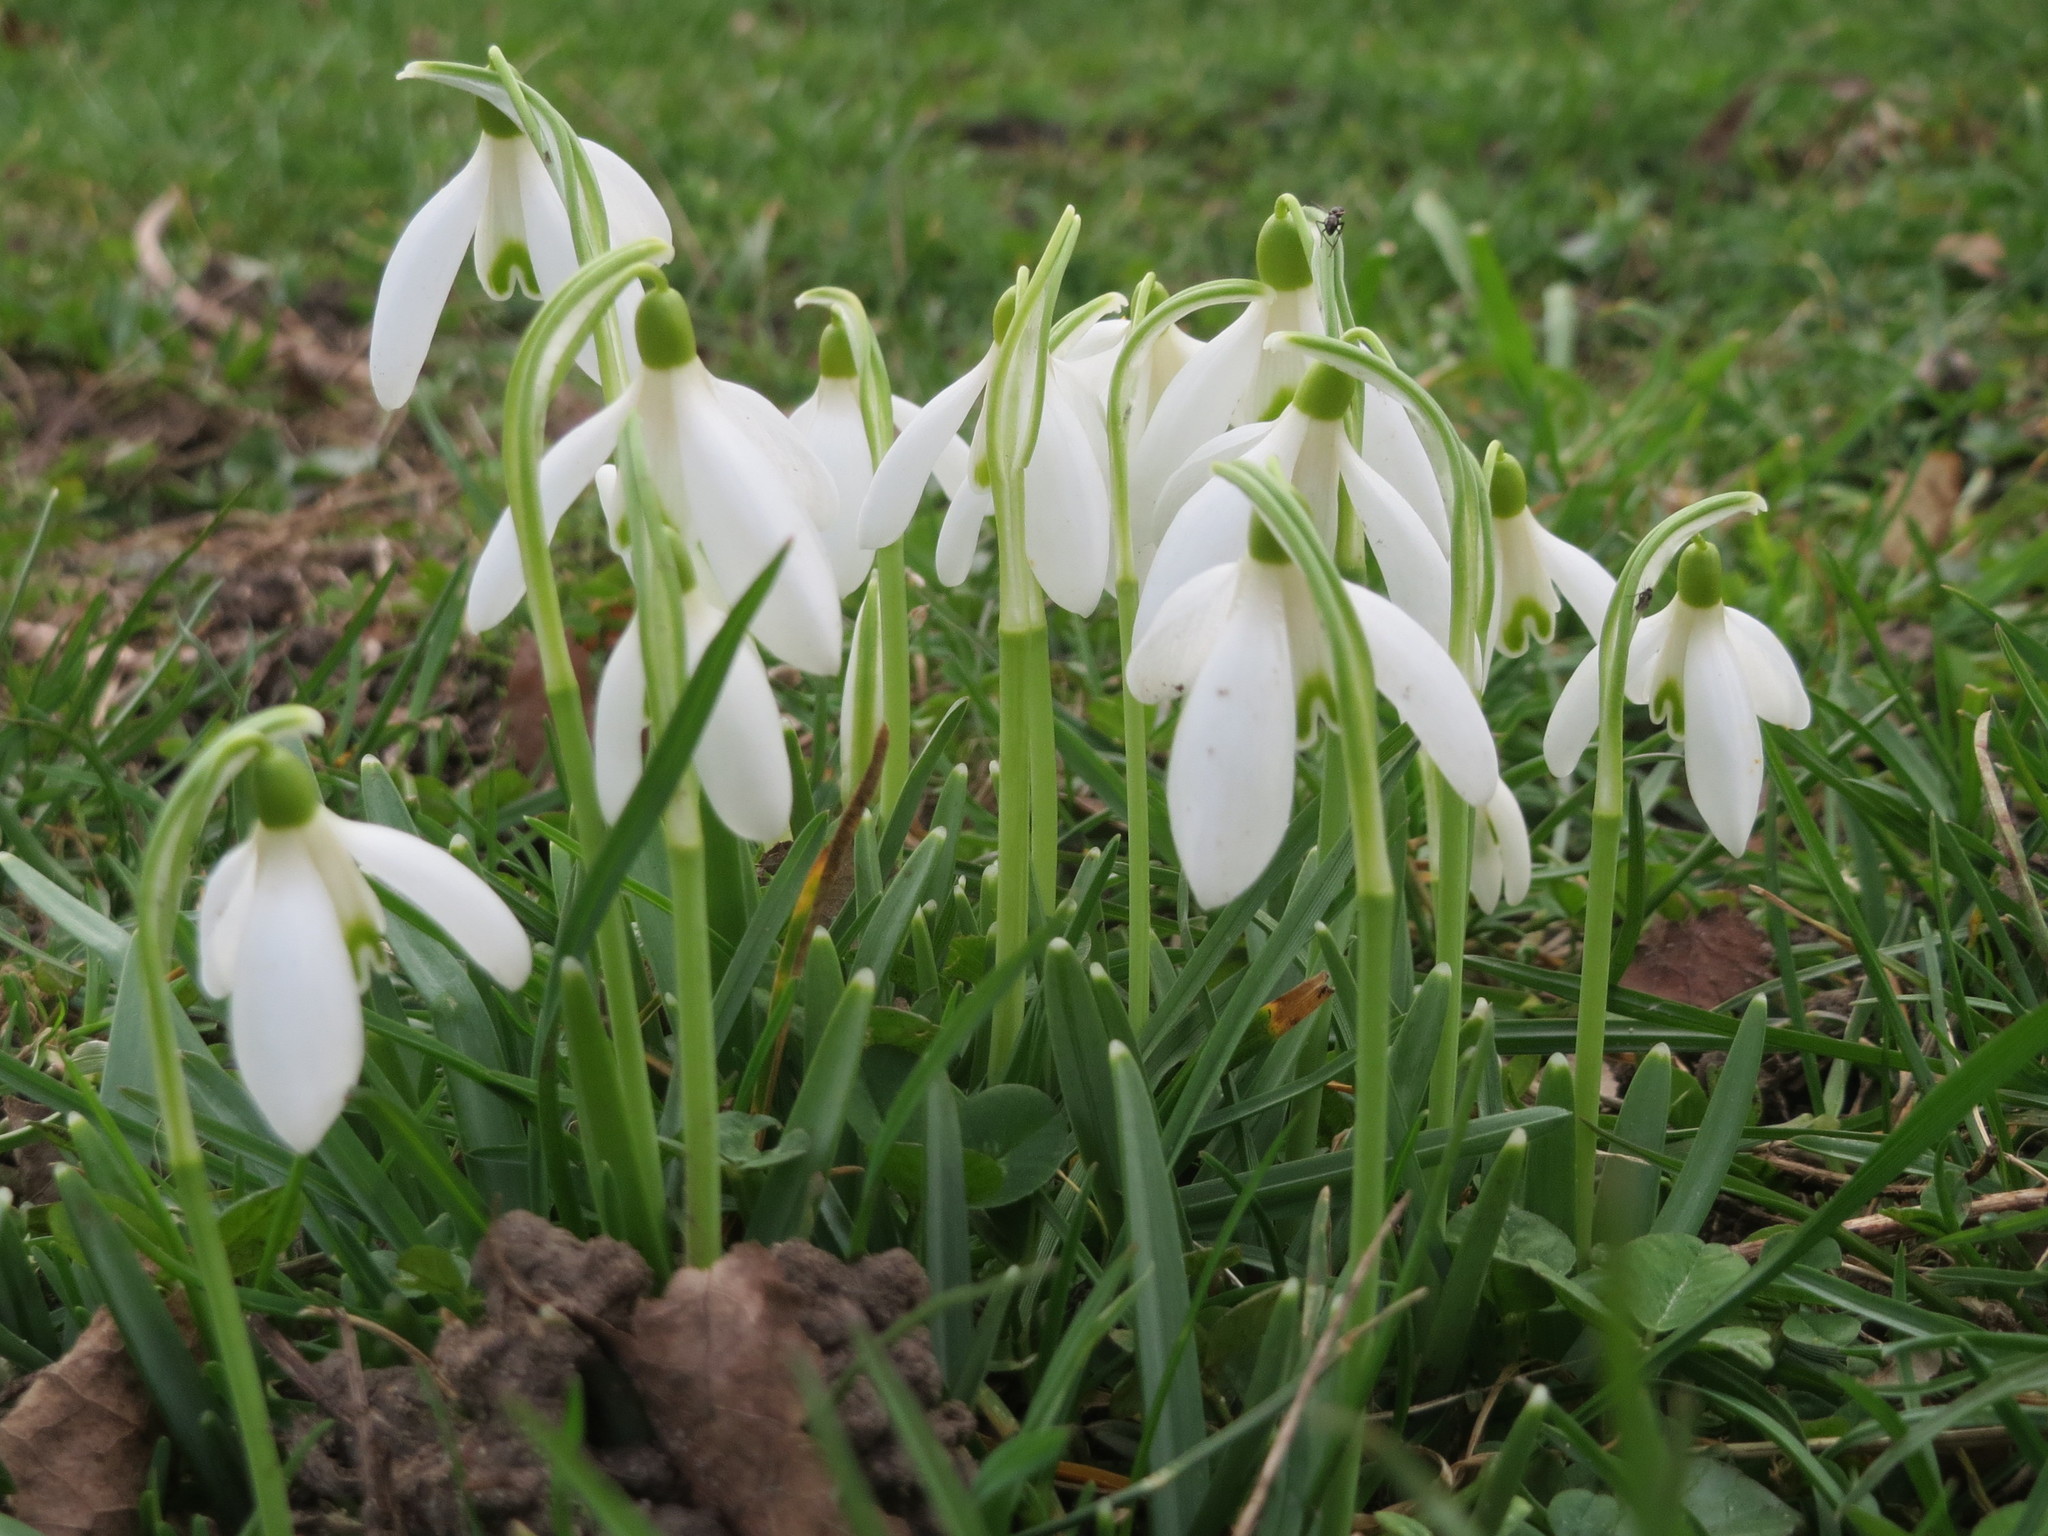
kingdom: Plantae
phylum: Tracheophyta
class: Liliopsida
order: Asparagales
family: Amaryllidaceae
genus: Galanthus
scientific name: Galanthus nivalis
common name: Snowdrop
